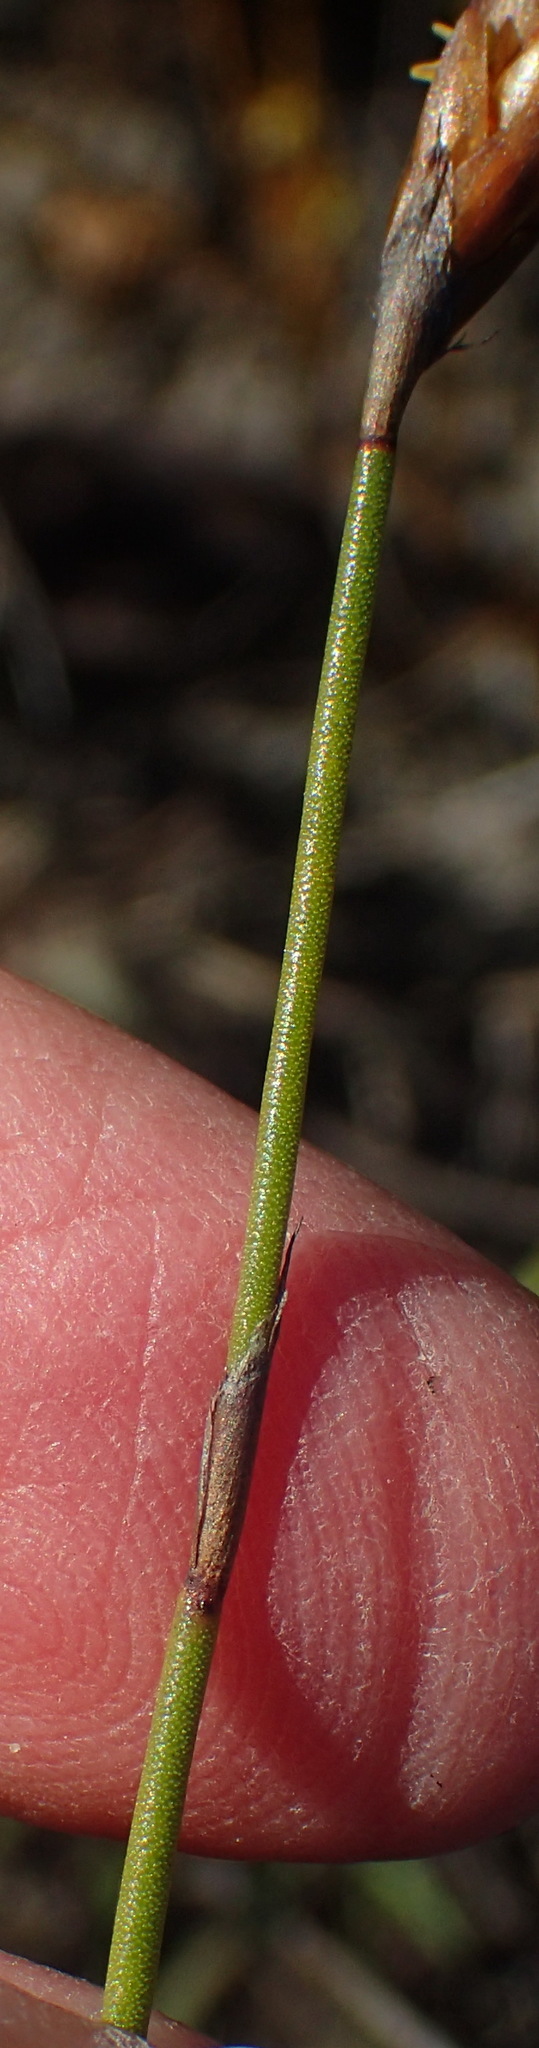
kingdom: Plantae
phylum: Tracheophyta
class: Liliopsida
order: Poales
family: Restionaceae
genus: Restio
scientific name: Restio triticeus
